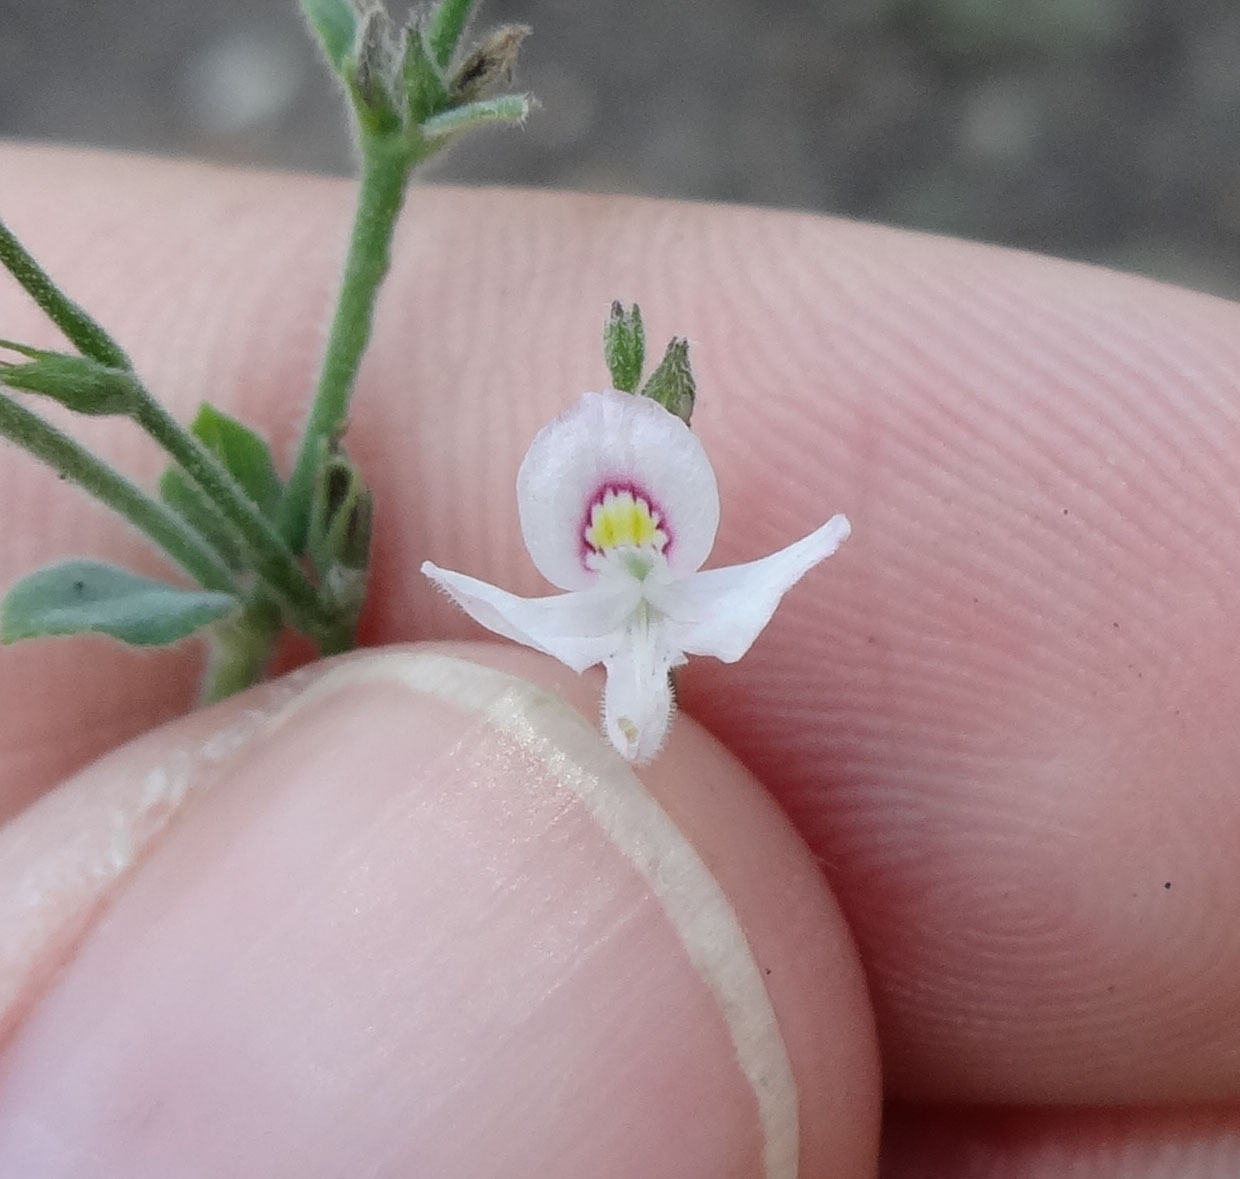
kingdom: Plantae
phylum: Tracheophyta
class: Magnoliopsida
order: Lamiales
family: Acanthaceae
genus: Carlowrightia
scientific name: Carlowrightia torreyana
